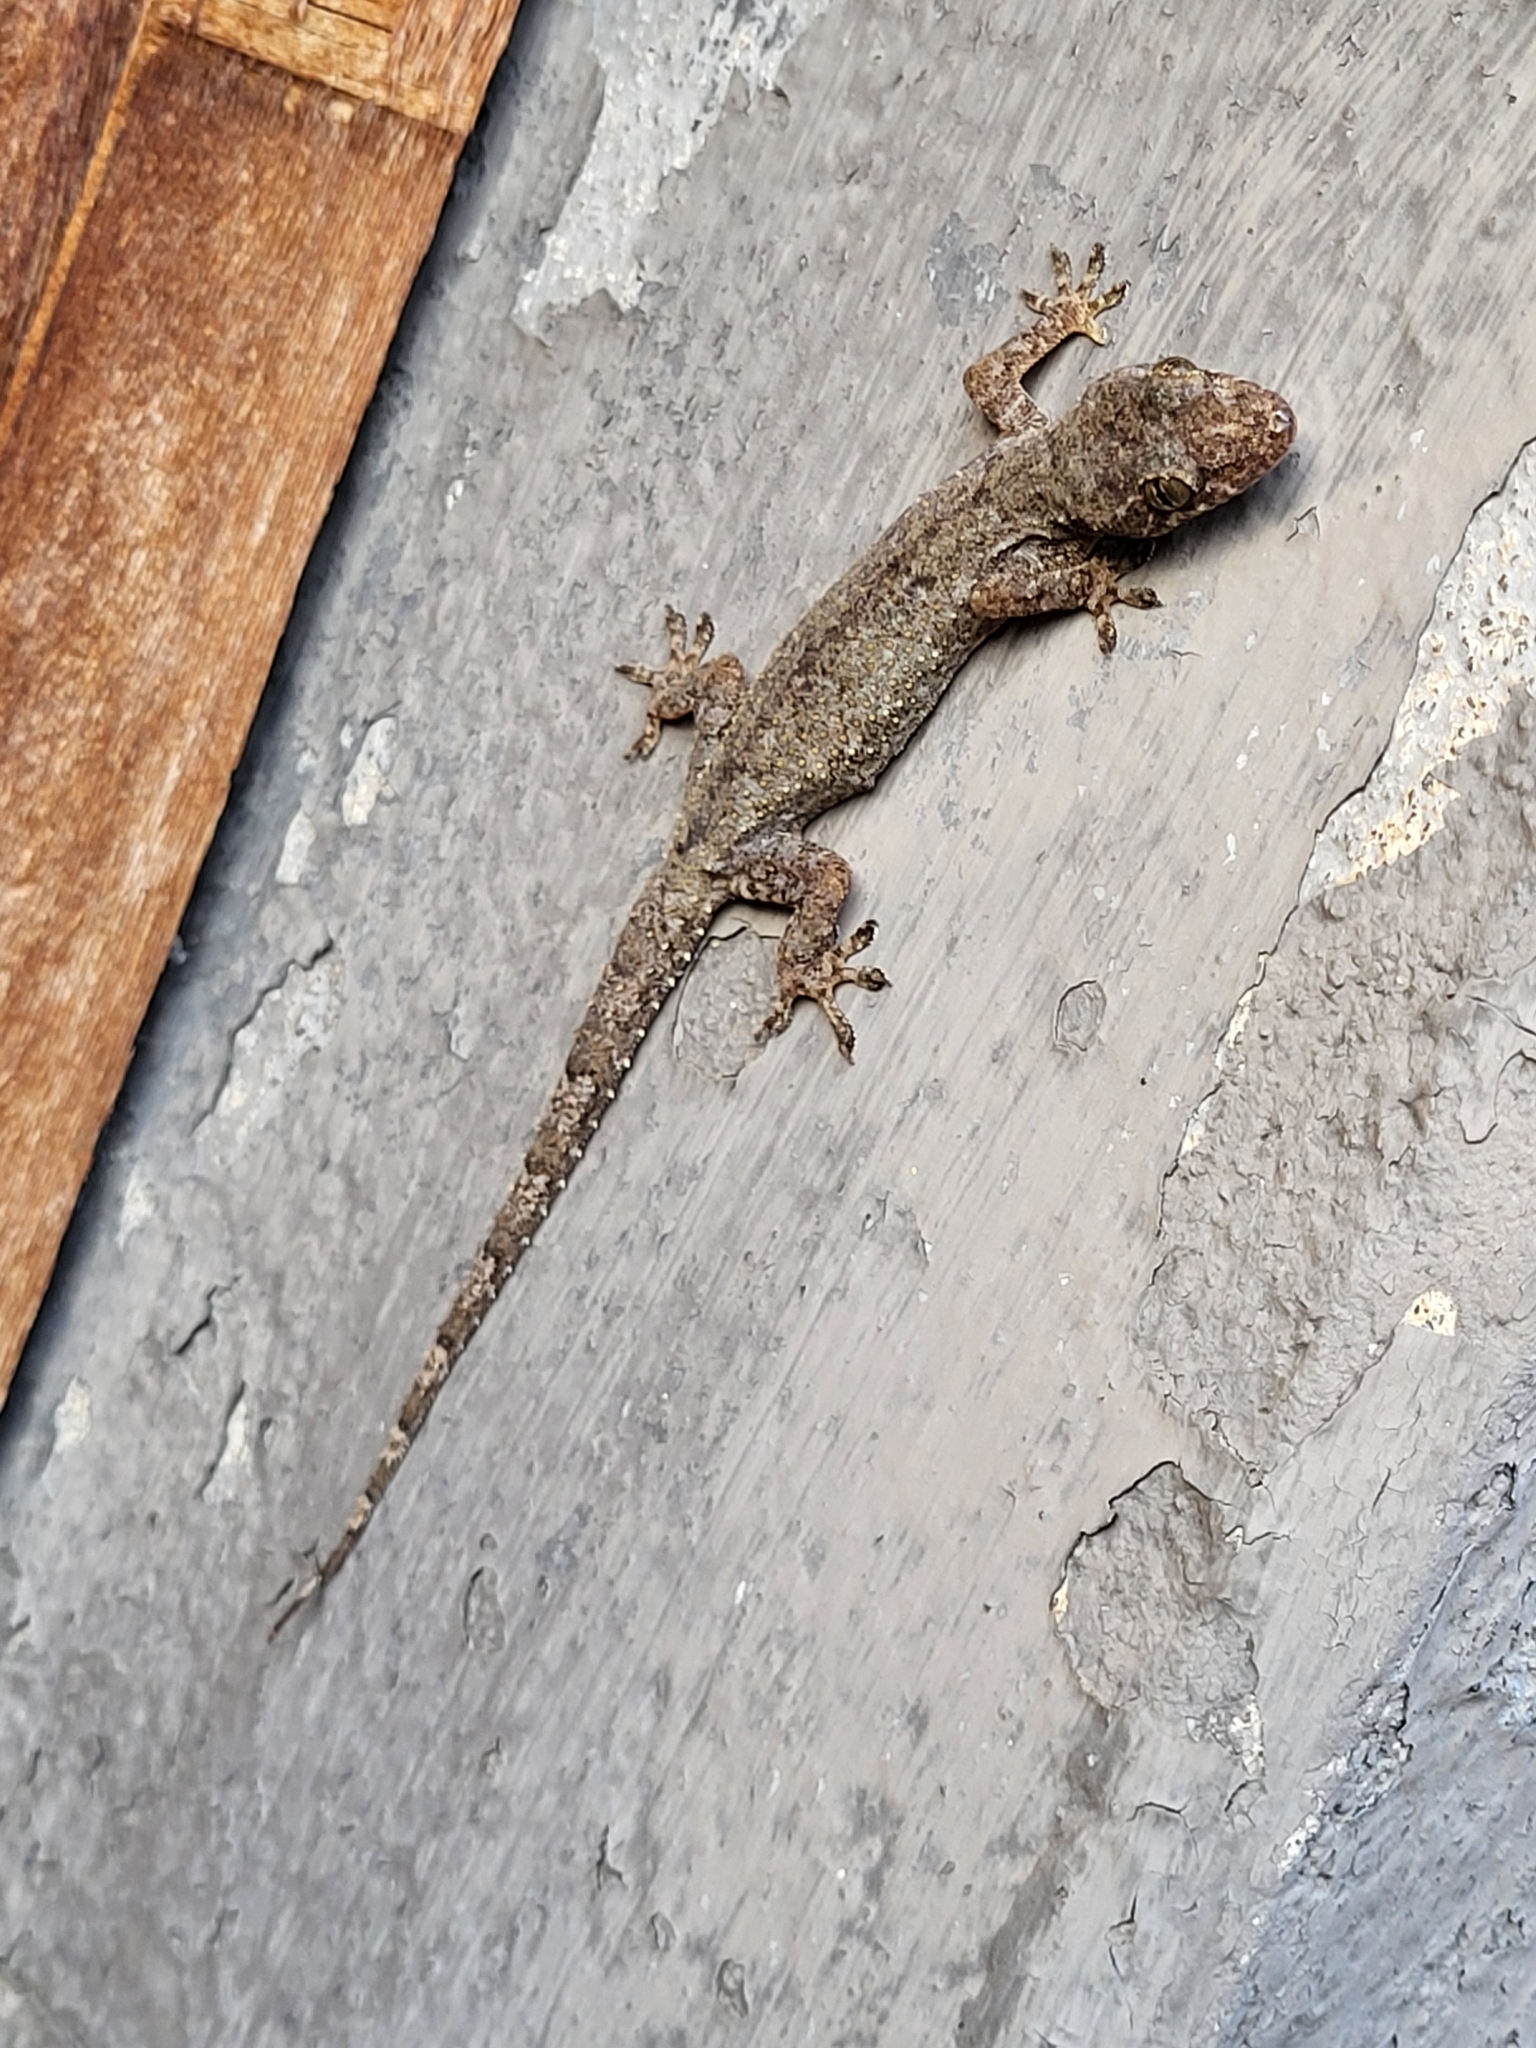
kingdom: Animalia
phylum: Chordata
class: Squamata
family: Gekkonidae
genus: Hemidactylus
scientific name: Hemidactylus mabouia
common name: House gecko
